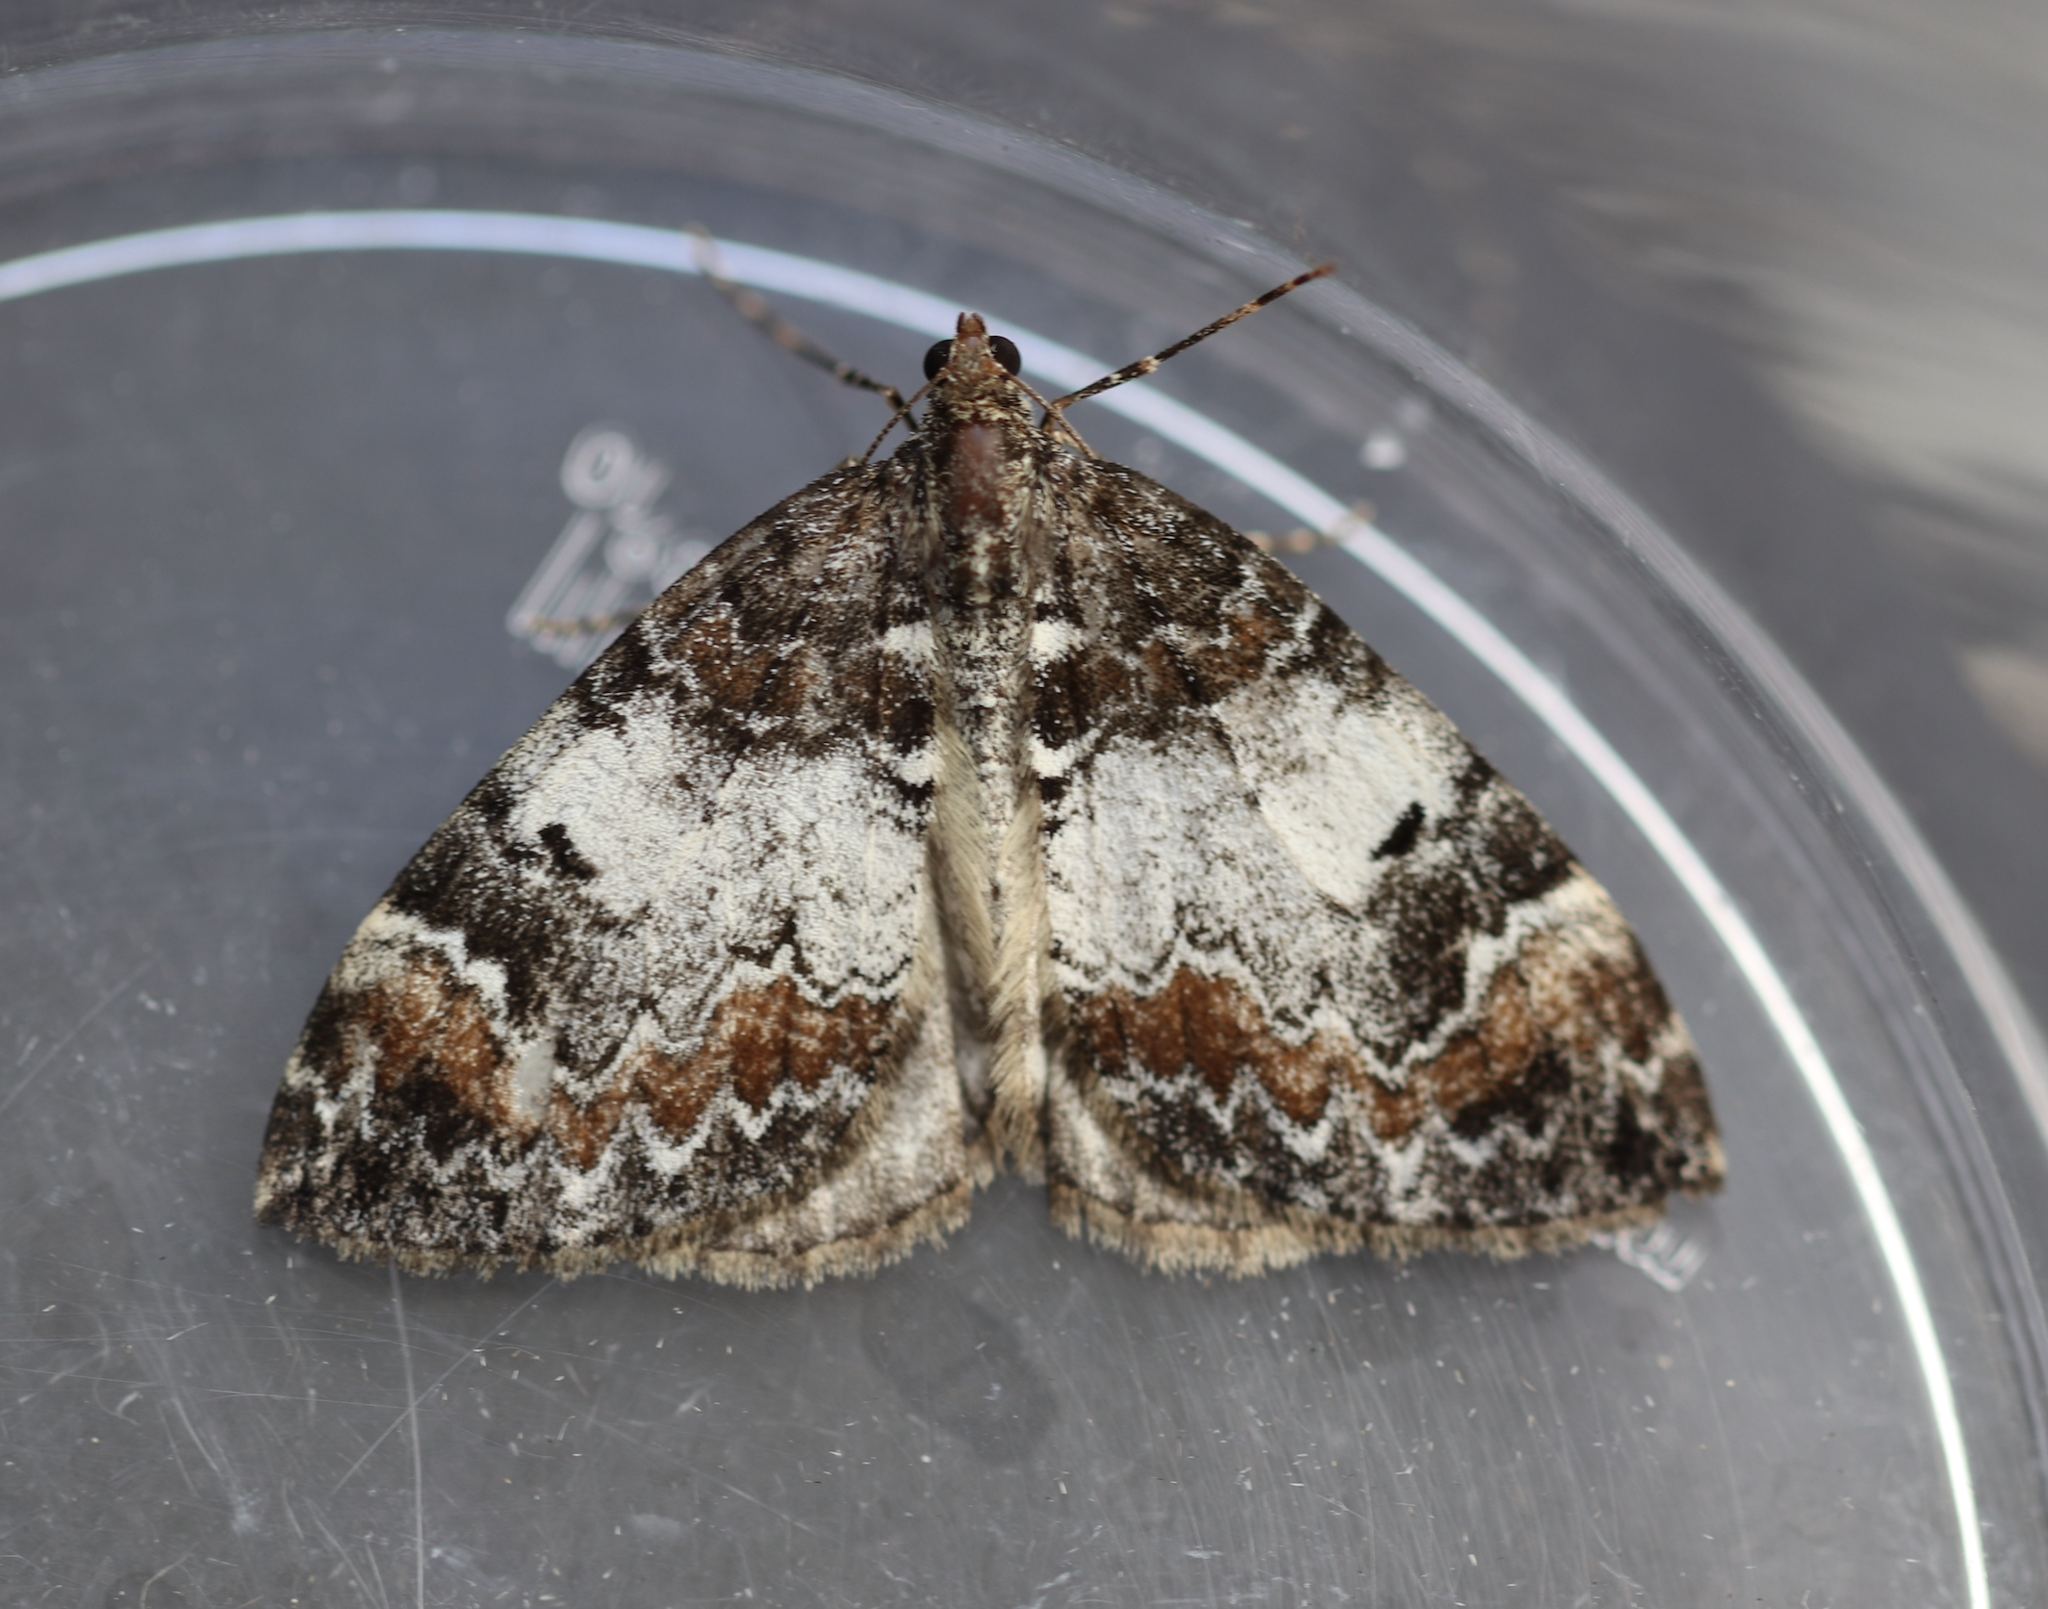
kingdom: Animalia
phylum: Arthropoda
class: Insecta
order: Lepidoptera
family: Geometridae
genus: Dysstroma
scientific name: Dysstroma truncata
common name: Common marbled carpet
